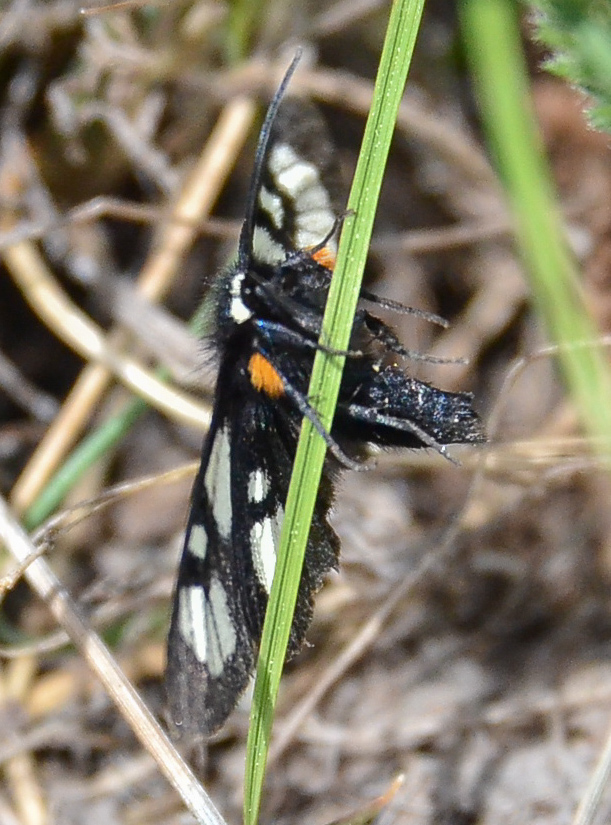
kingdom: Animalia
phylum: Arthropoda
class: Insecta
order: Lepidoptera
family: Noctuidae
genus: Alypia
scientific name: Alypia ridingsii
